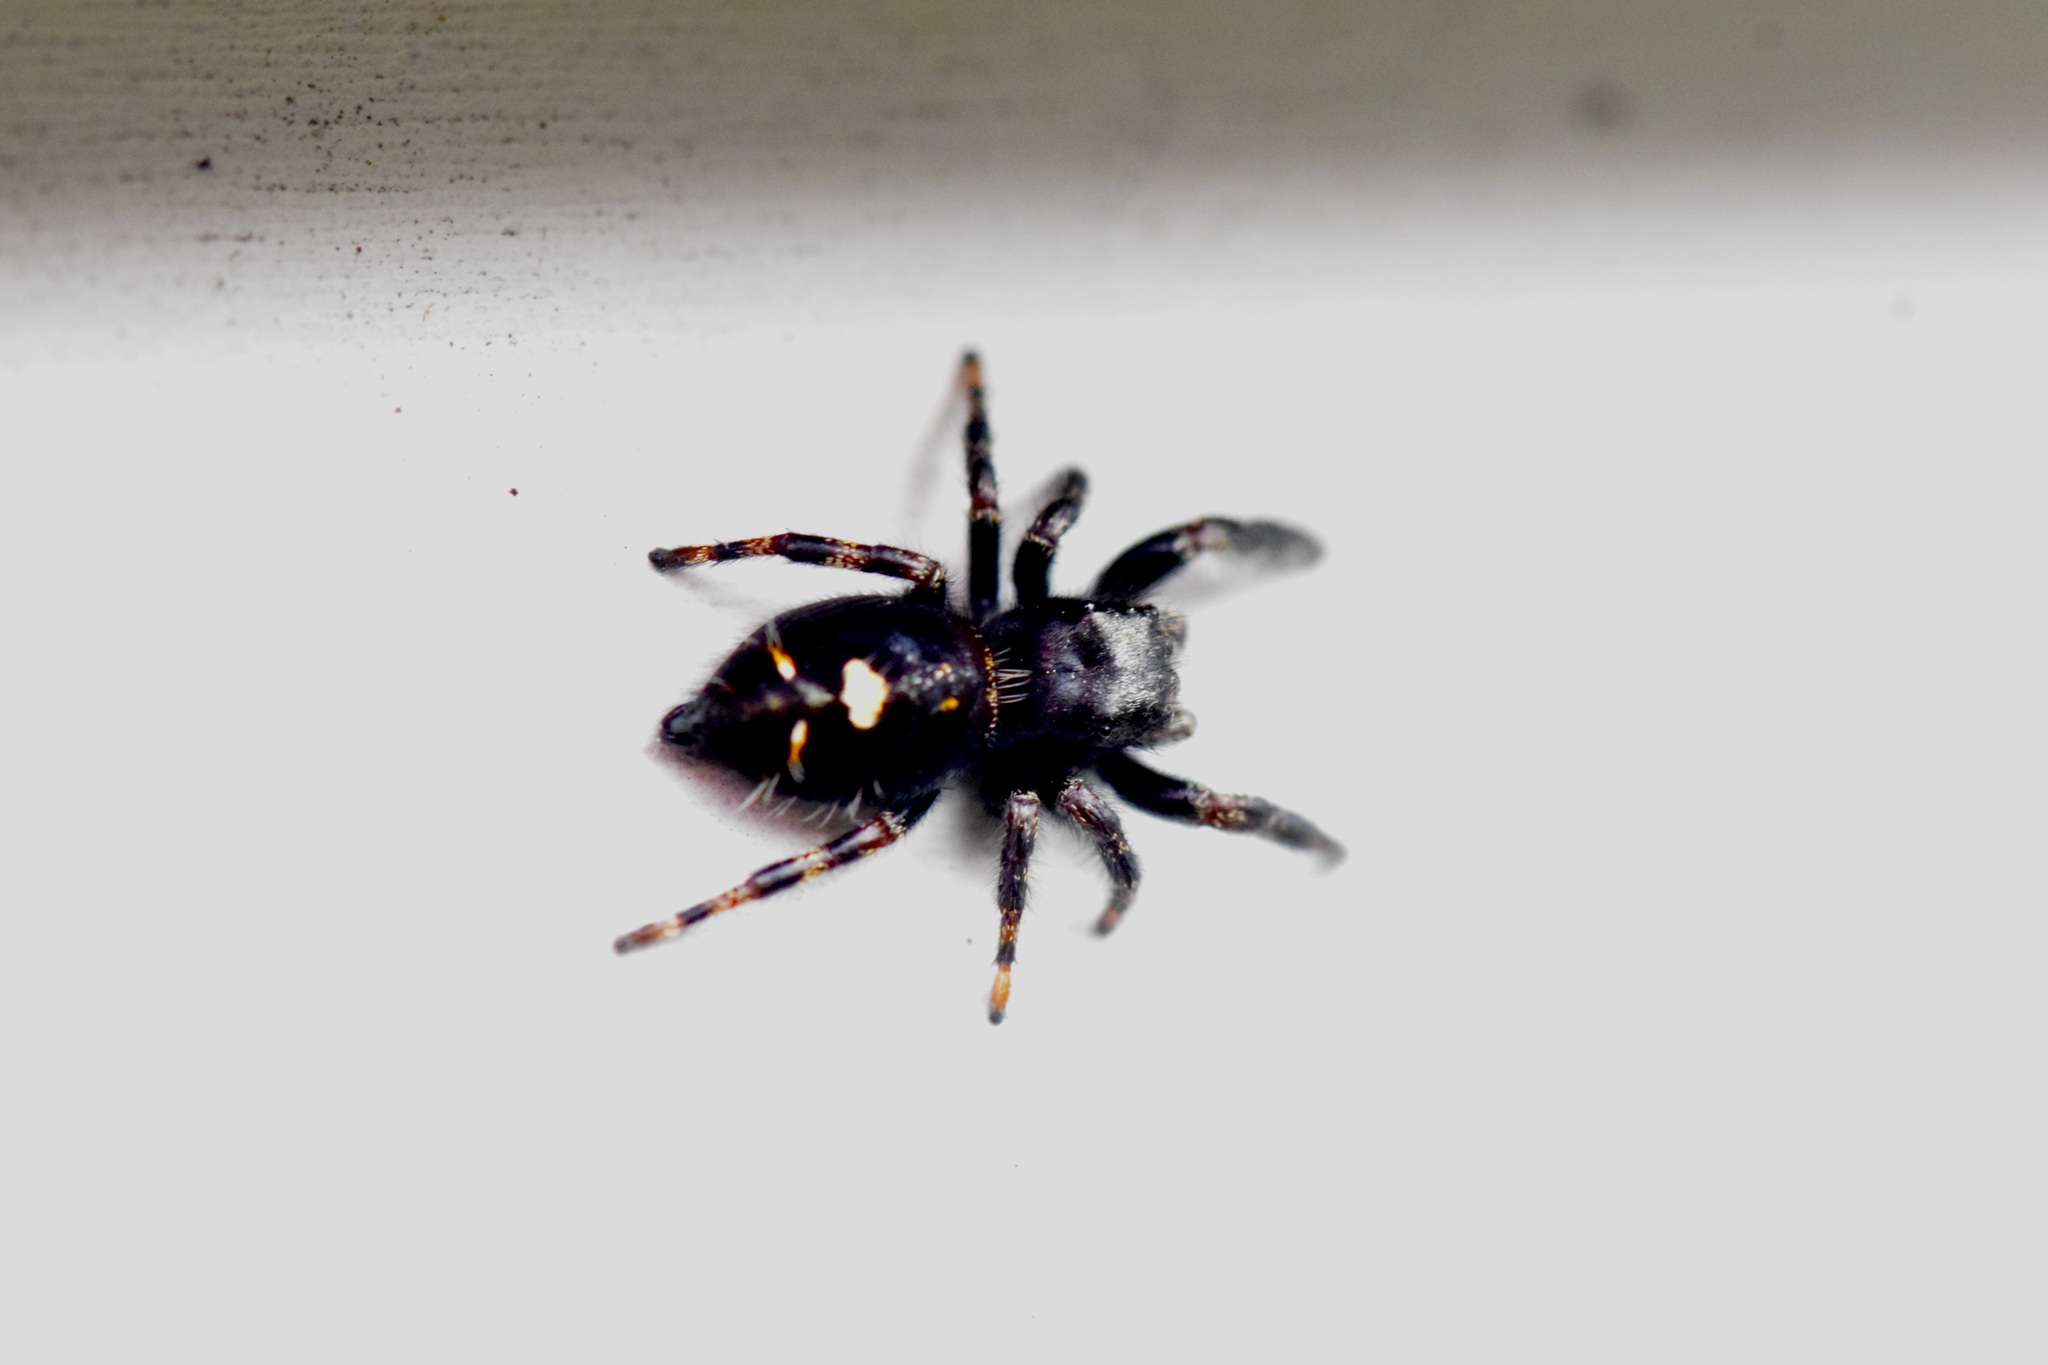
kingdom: Animalia
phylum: Arthropoda
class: Arachnida
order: Araneae
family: Salticidae
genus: Phidippus
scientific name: Phidippus audax
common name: Bold jumper
